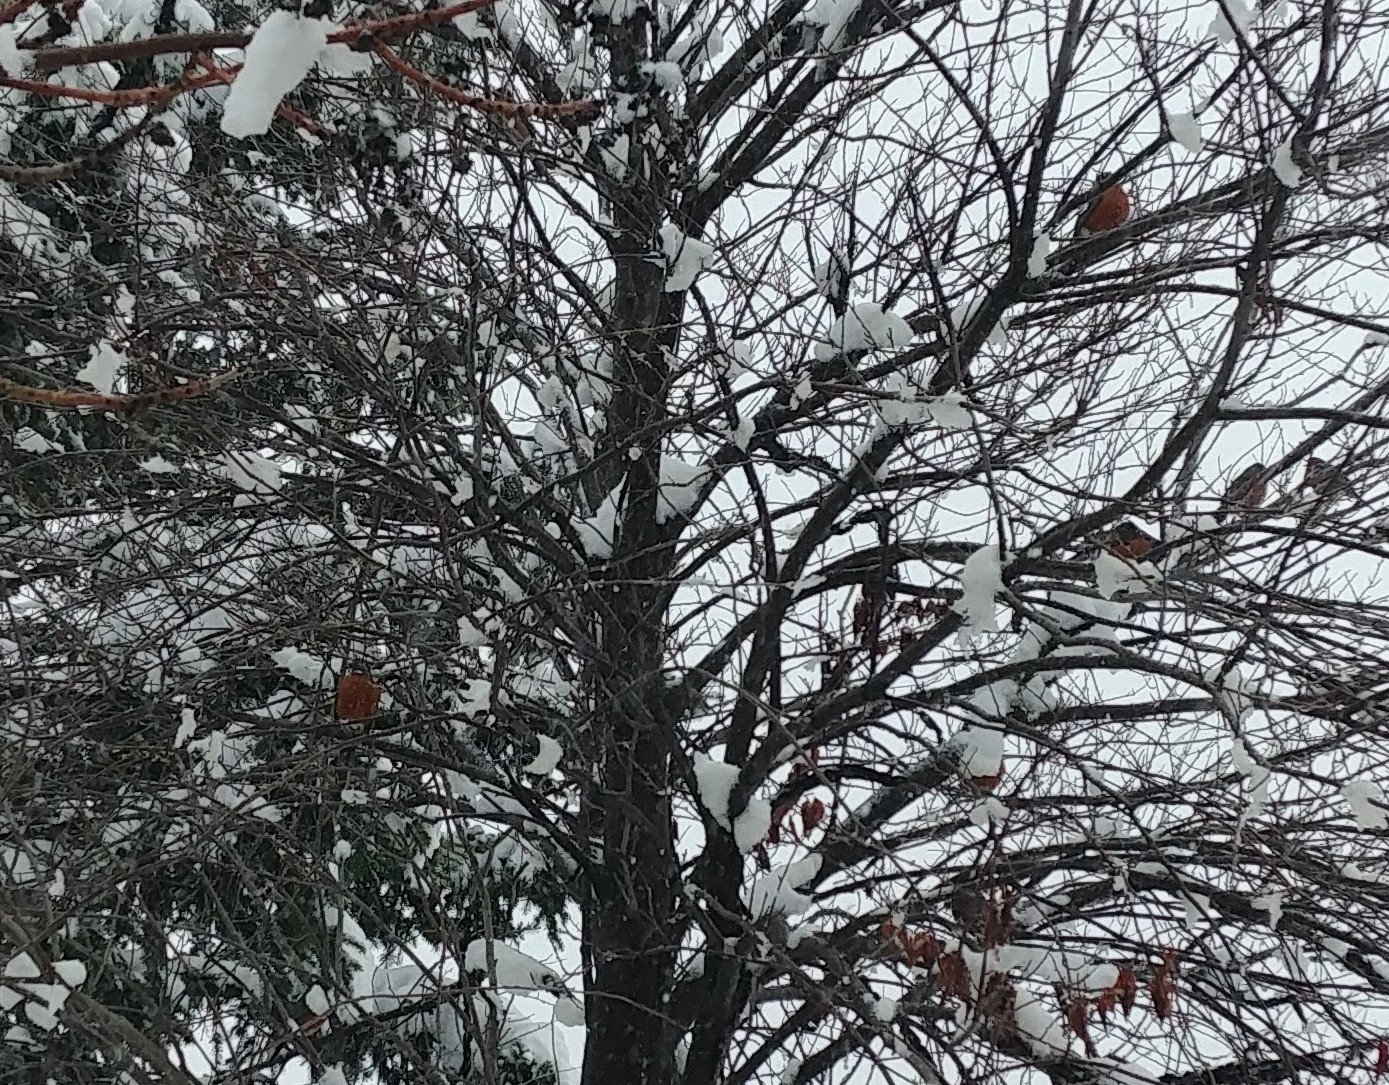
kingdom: Animalia
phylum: Chordata
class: Aves
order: Passeriformes
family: Turdidae
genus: Turdus
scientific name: Turdus migratorius
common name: American robin
